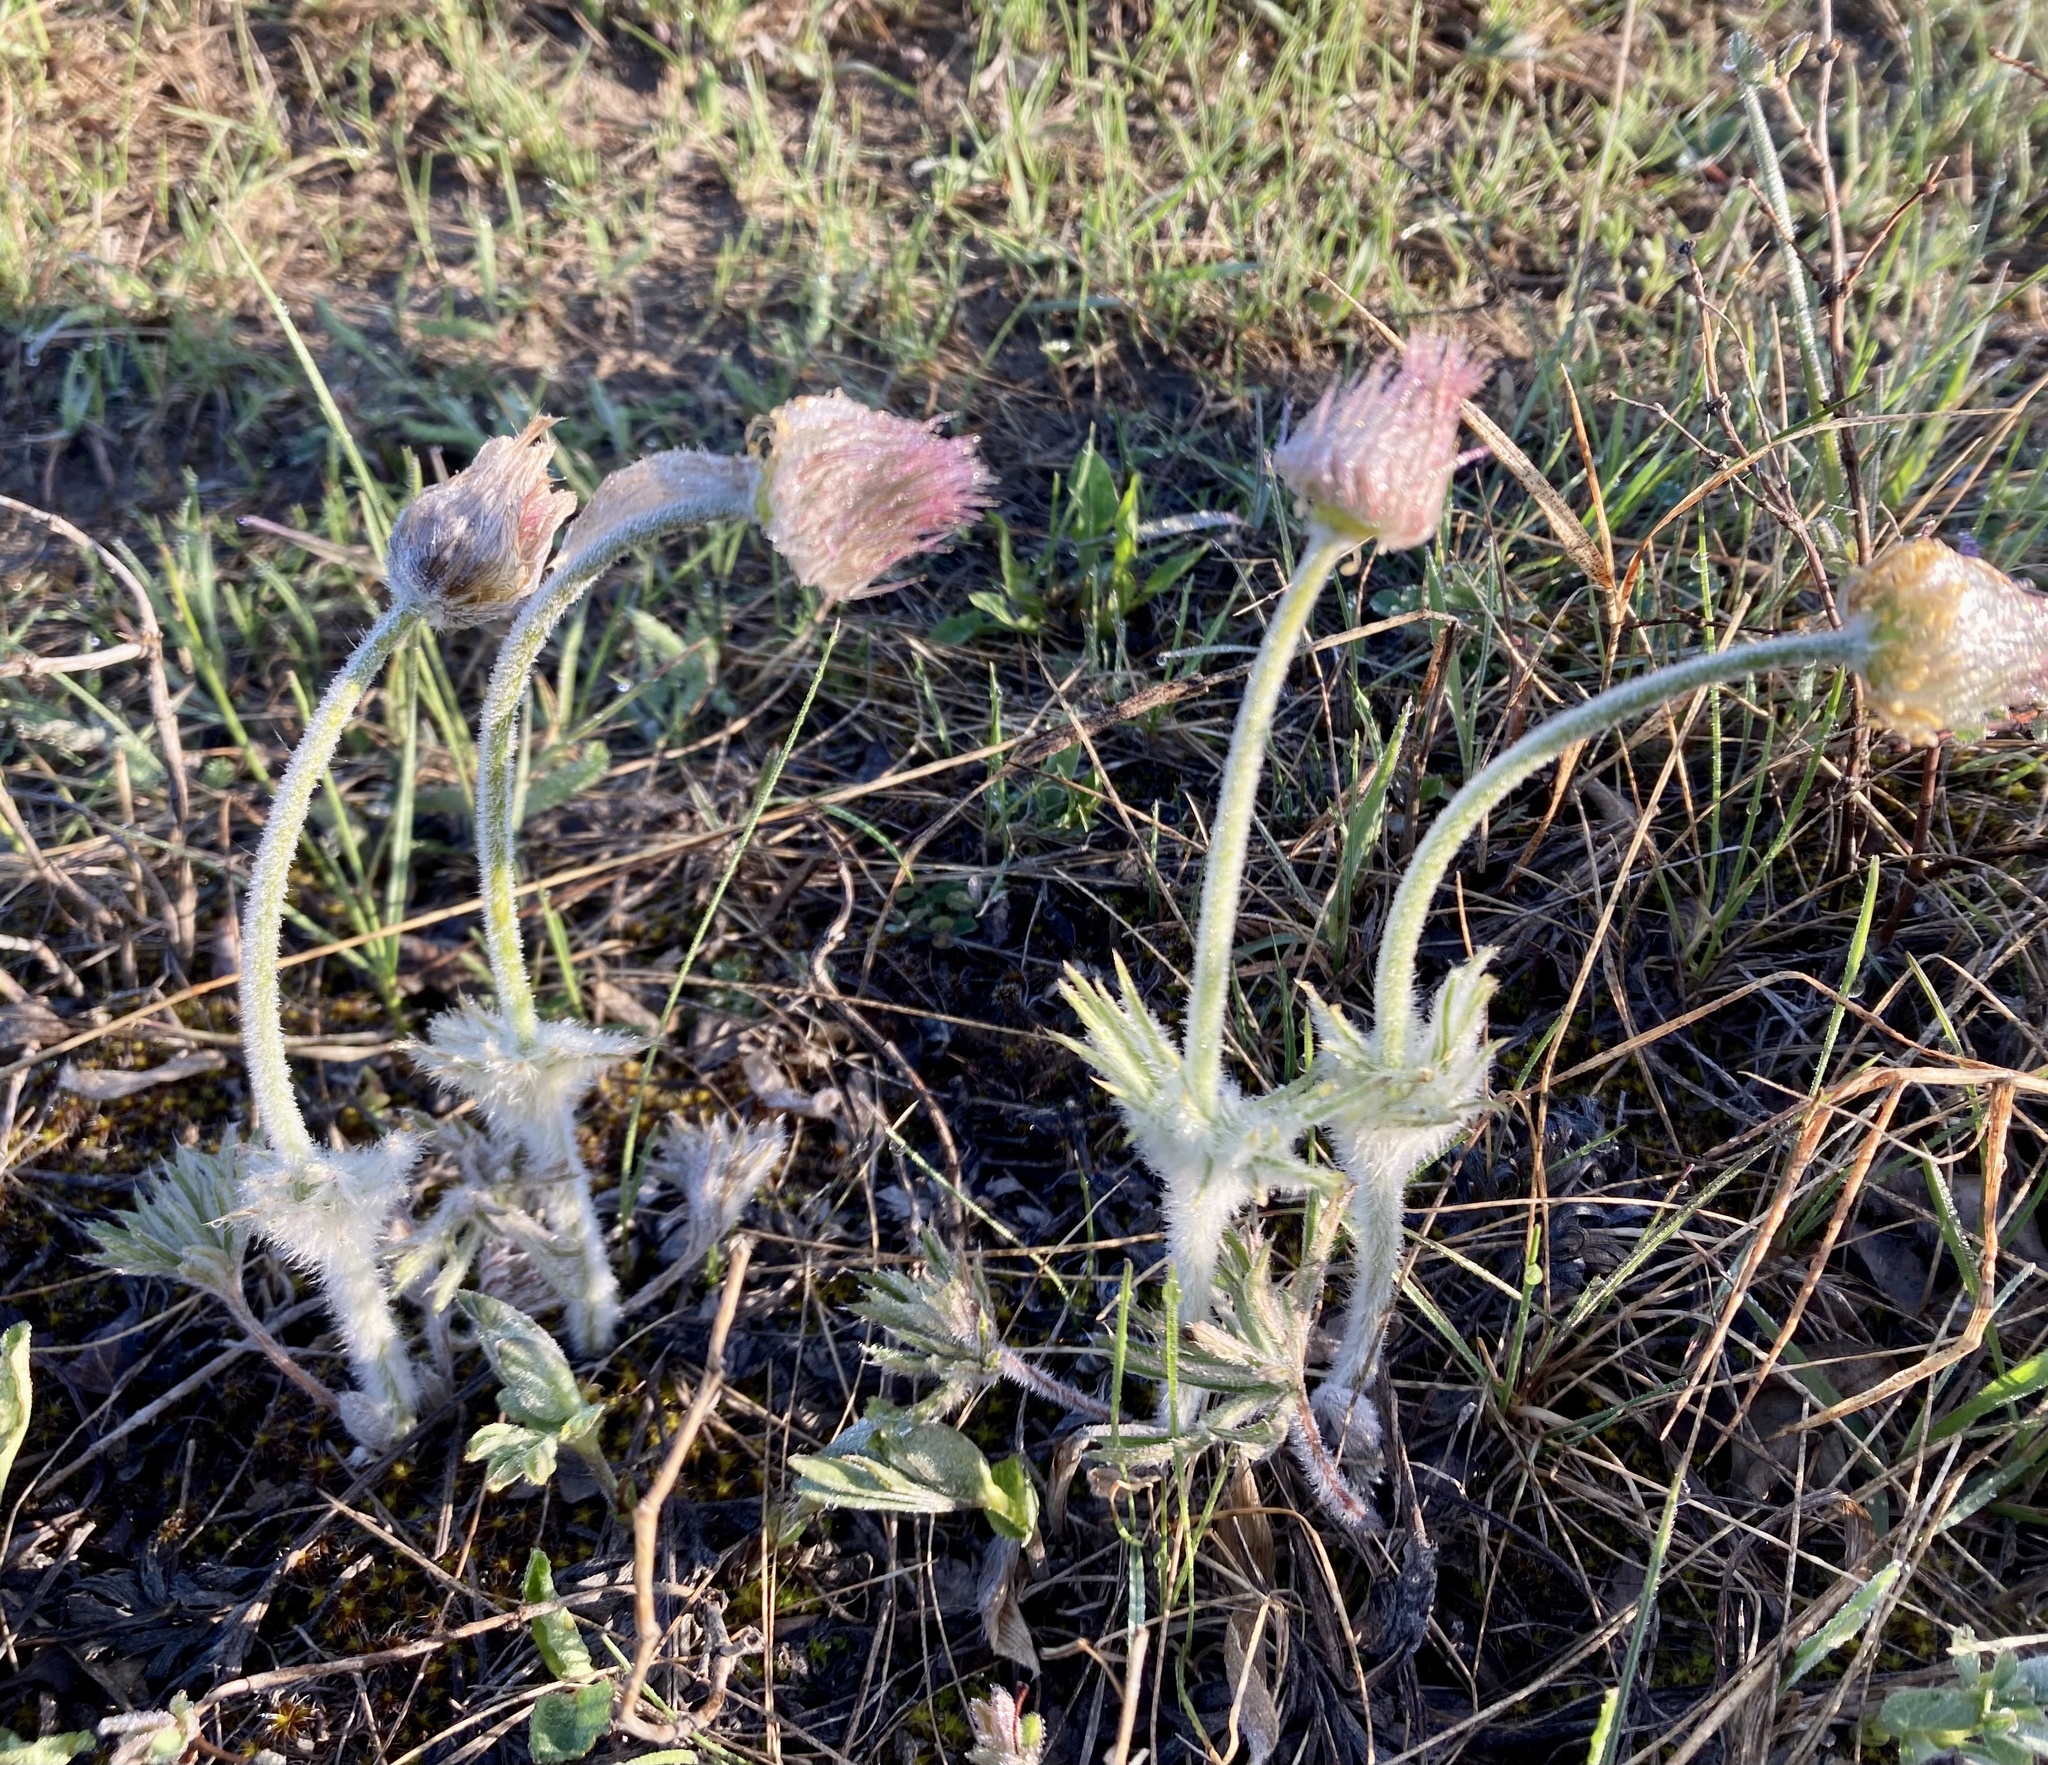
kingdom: Plantae
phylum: Tracheophyta
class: Magnoliopsida
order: Ranunculales
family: Ranunculaceae
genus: Pulsatilla
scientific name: Pulsatilla nuttalliana
